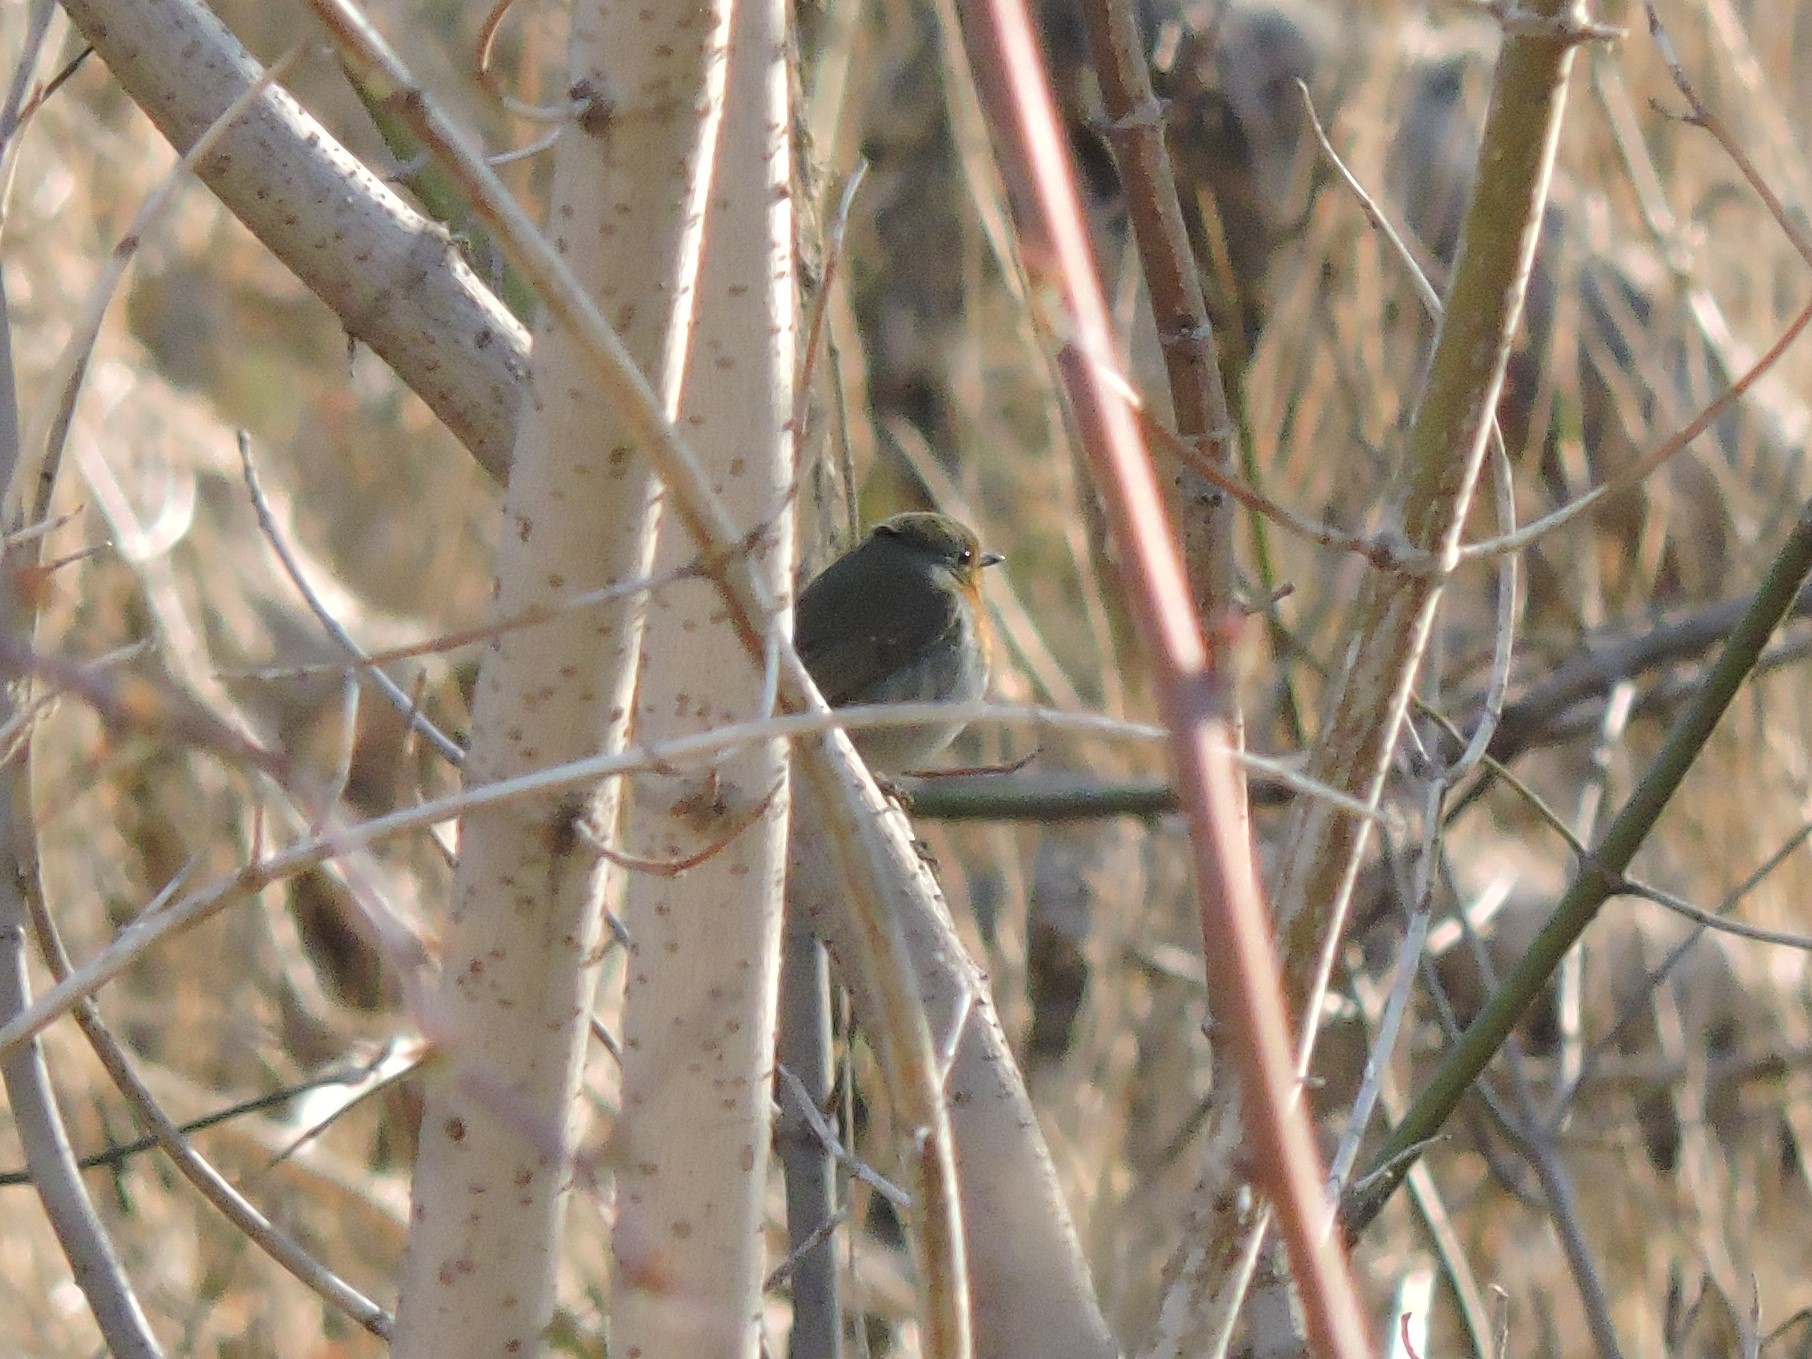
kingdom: Animalia
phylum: Chordata
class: Aves
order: Passeriformes
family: Muscicapidae
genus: Erithacus
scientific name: Erithacus rubecula
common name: European robin
